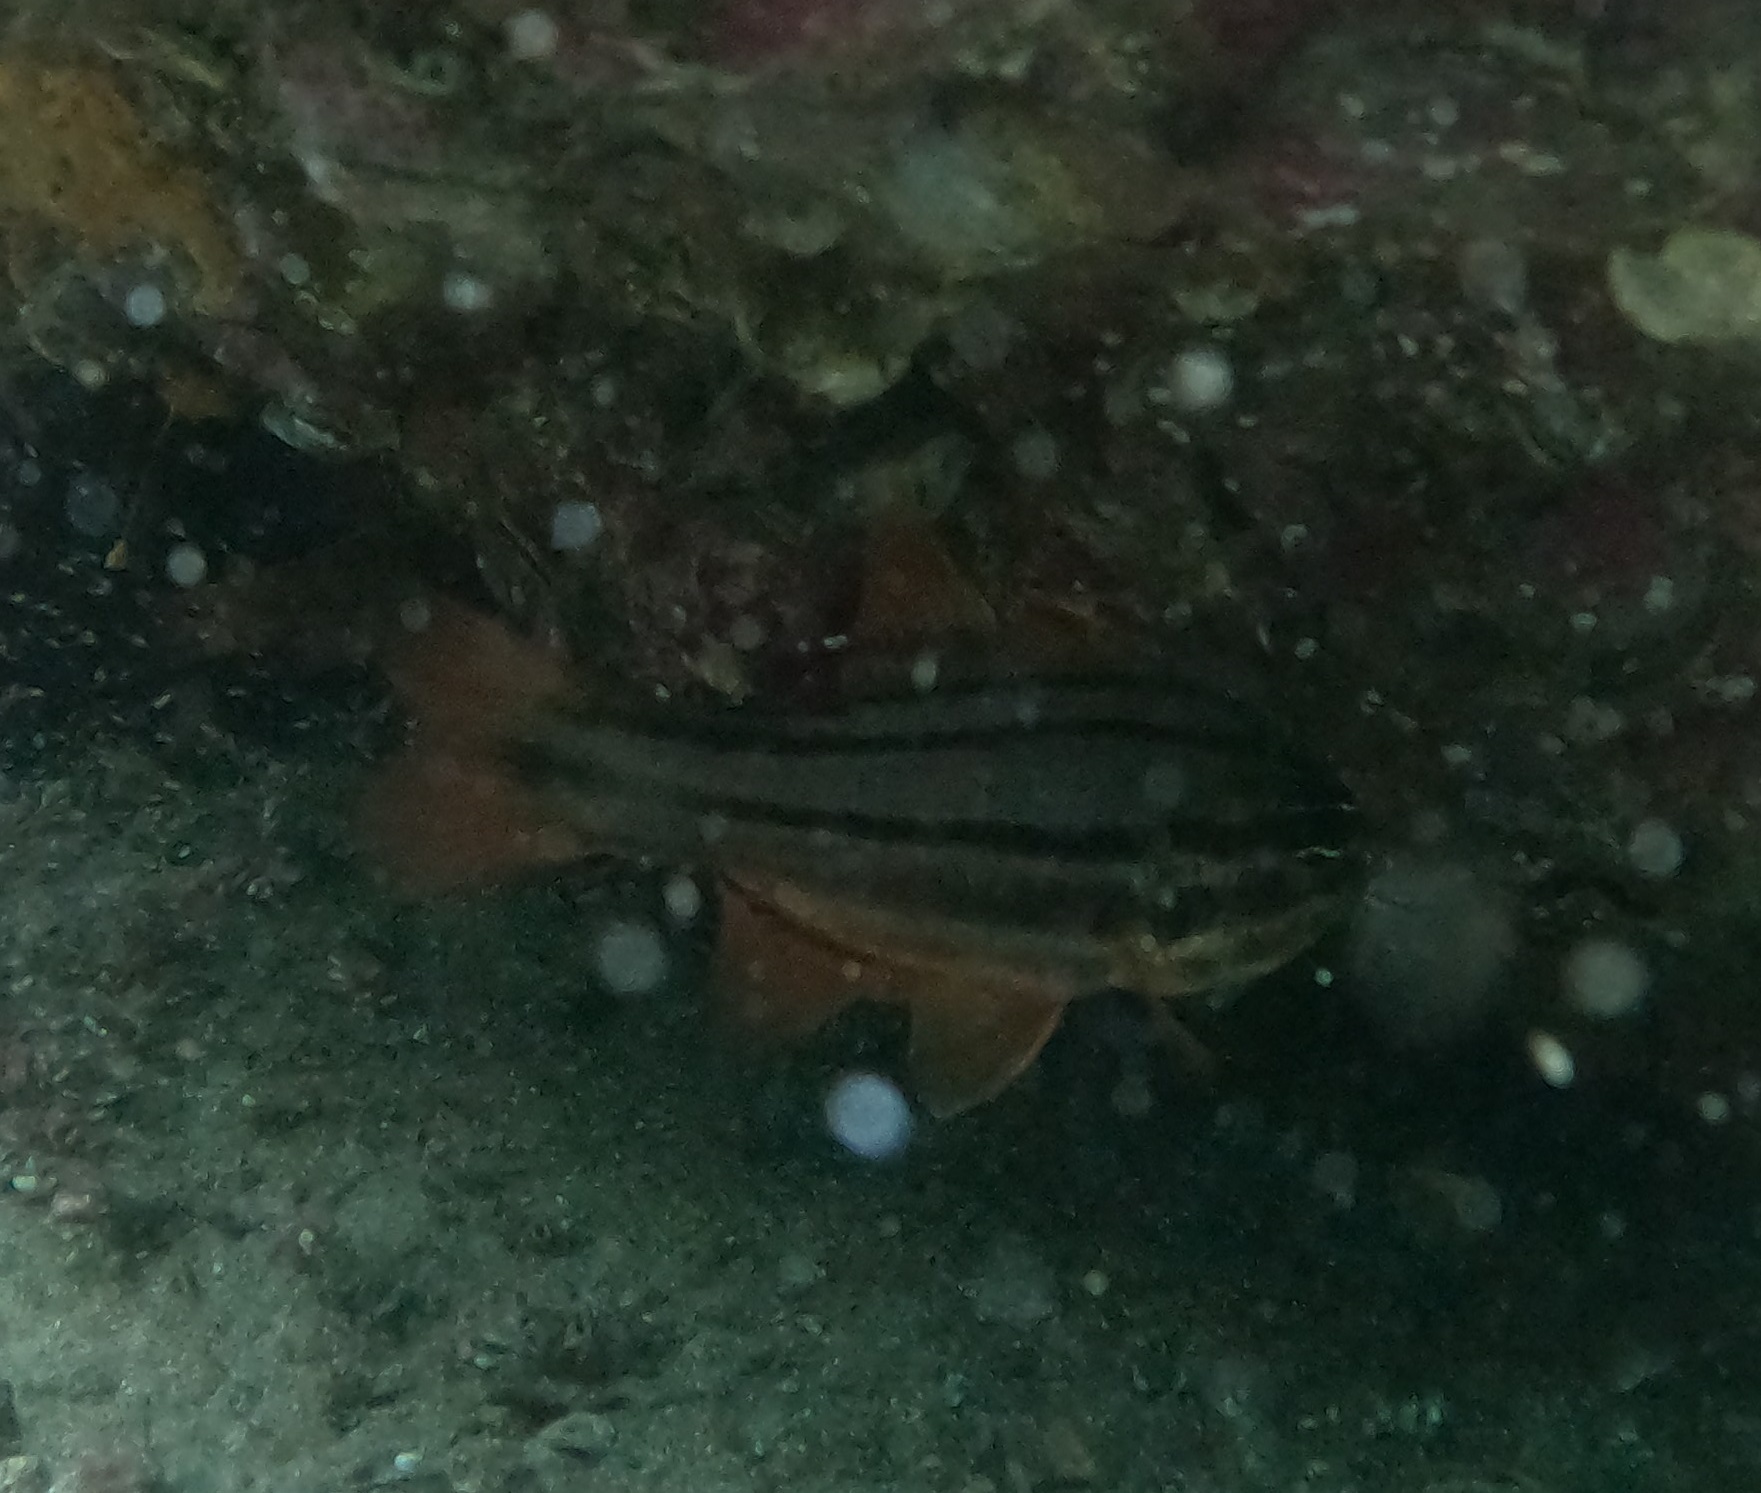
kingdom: Animalia
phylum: Chordata
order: Perciformes
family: Apogonidae
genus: Ostorhinchus
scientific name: Ostorhinchus limenus
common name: Four-banded soldierfish
